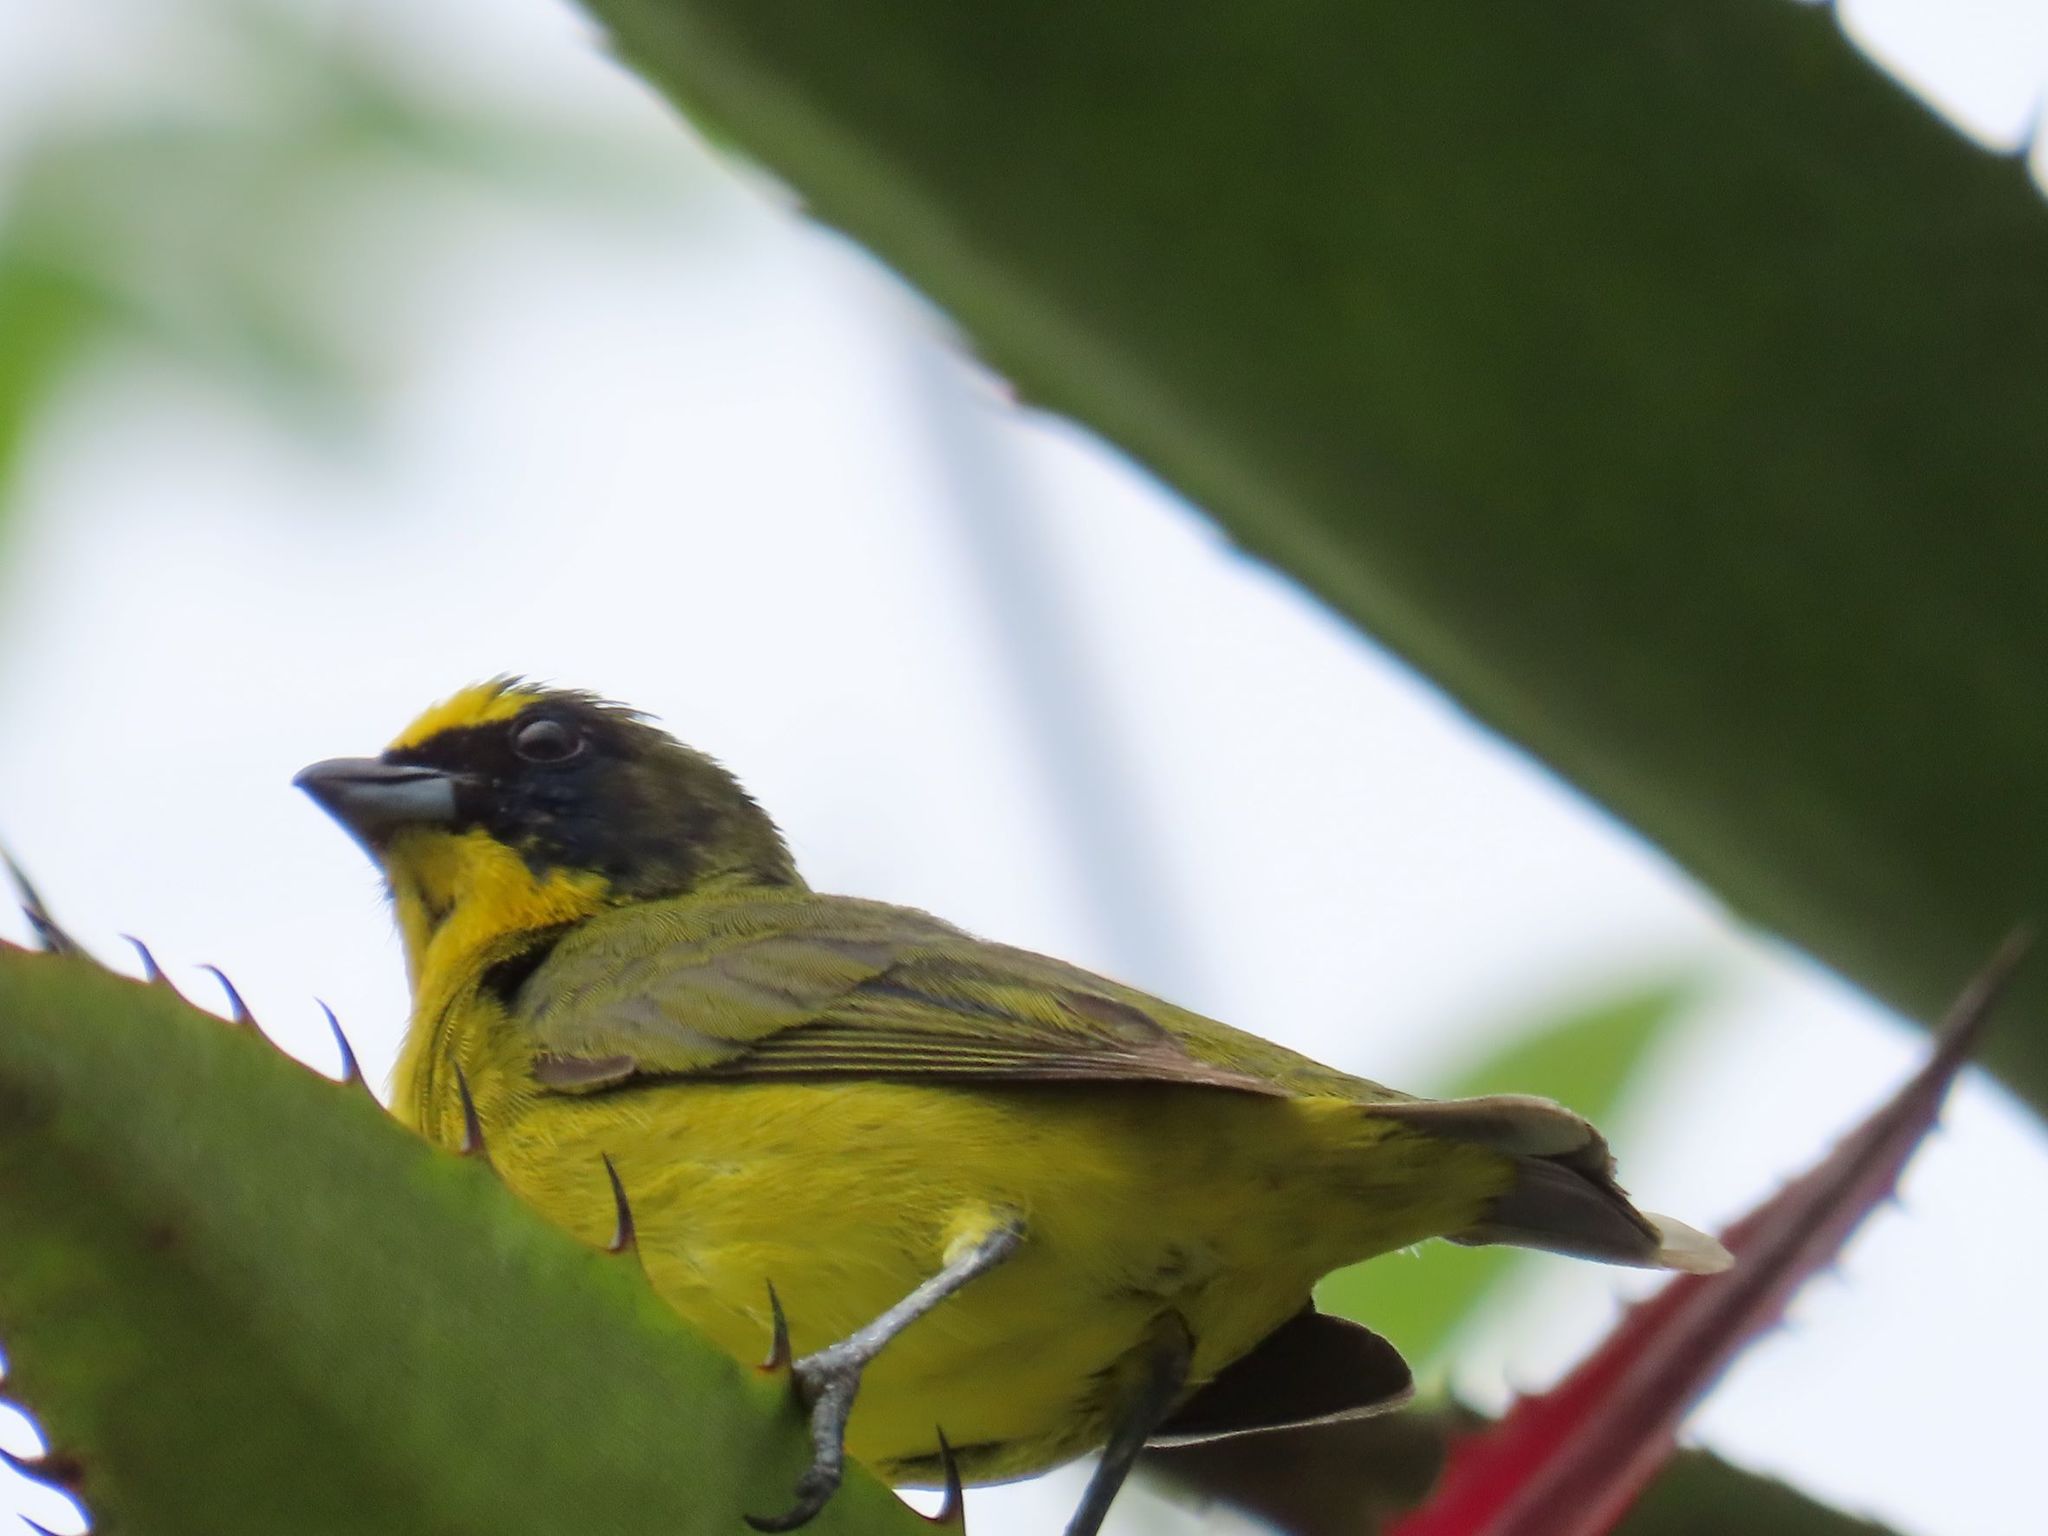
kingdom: Animalia
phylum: Chordata
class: Aves
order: Passeriformes
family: Fringillidae
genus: Euphonia
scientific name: Euphonia laniirostris
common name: Thick-billed euphonia
